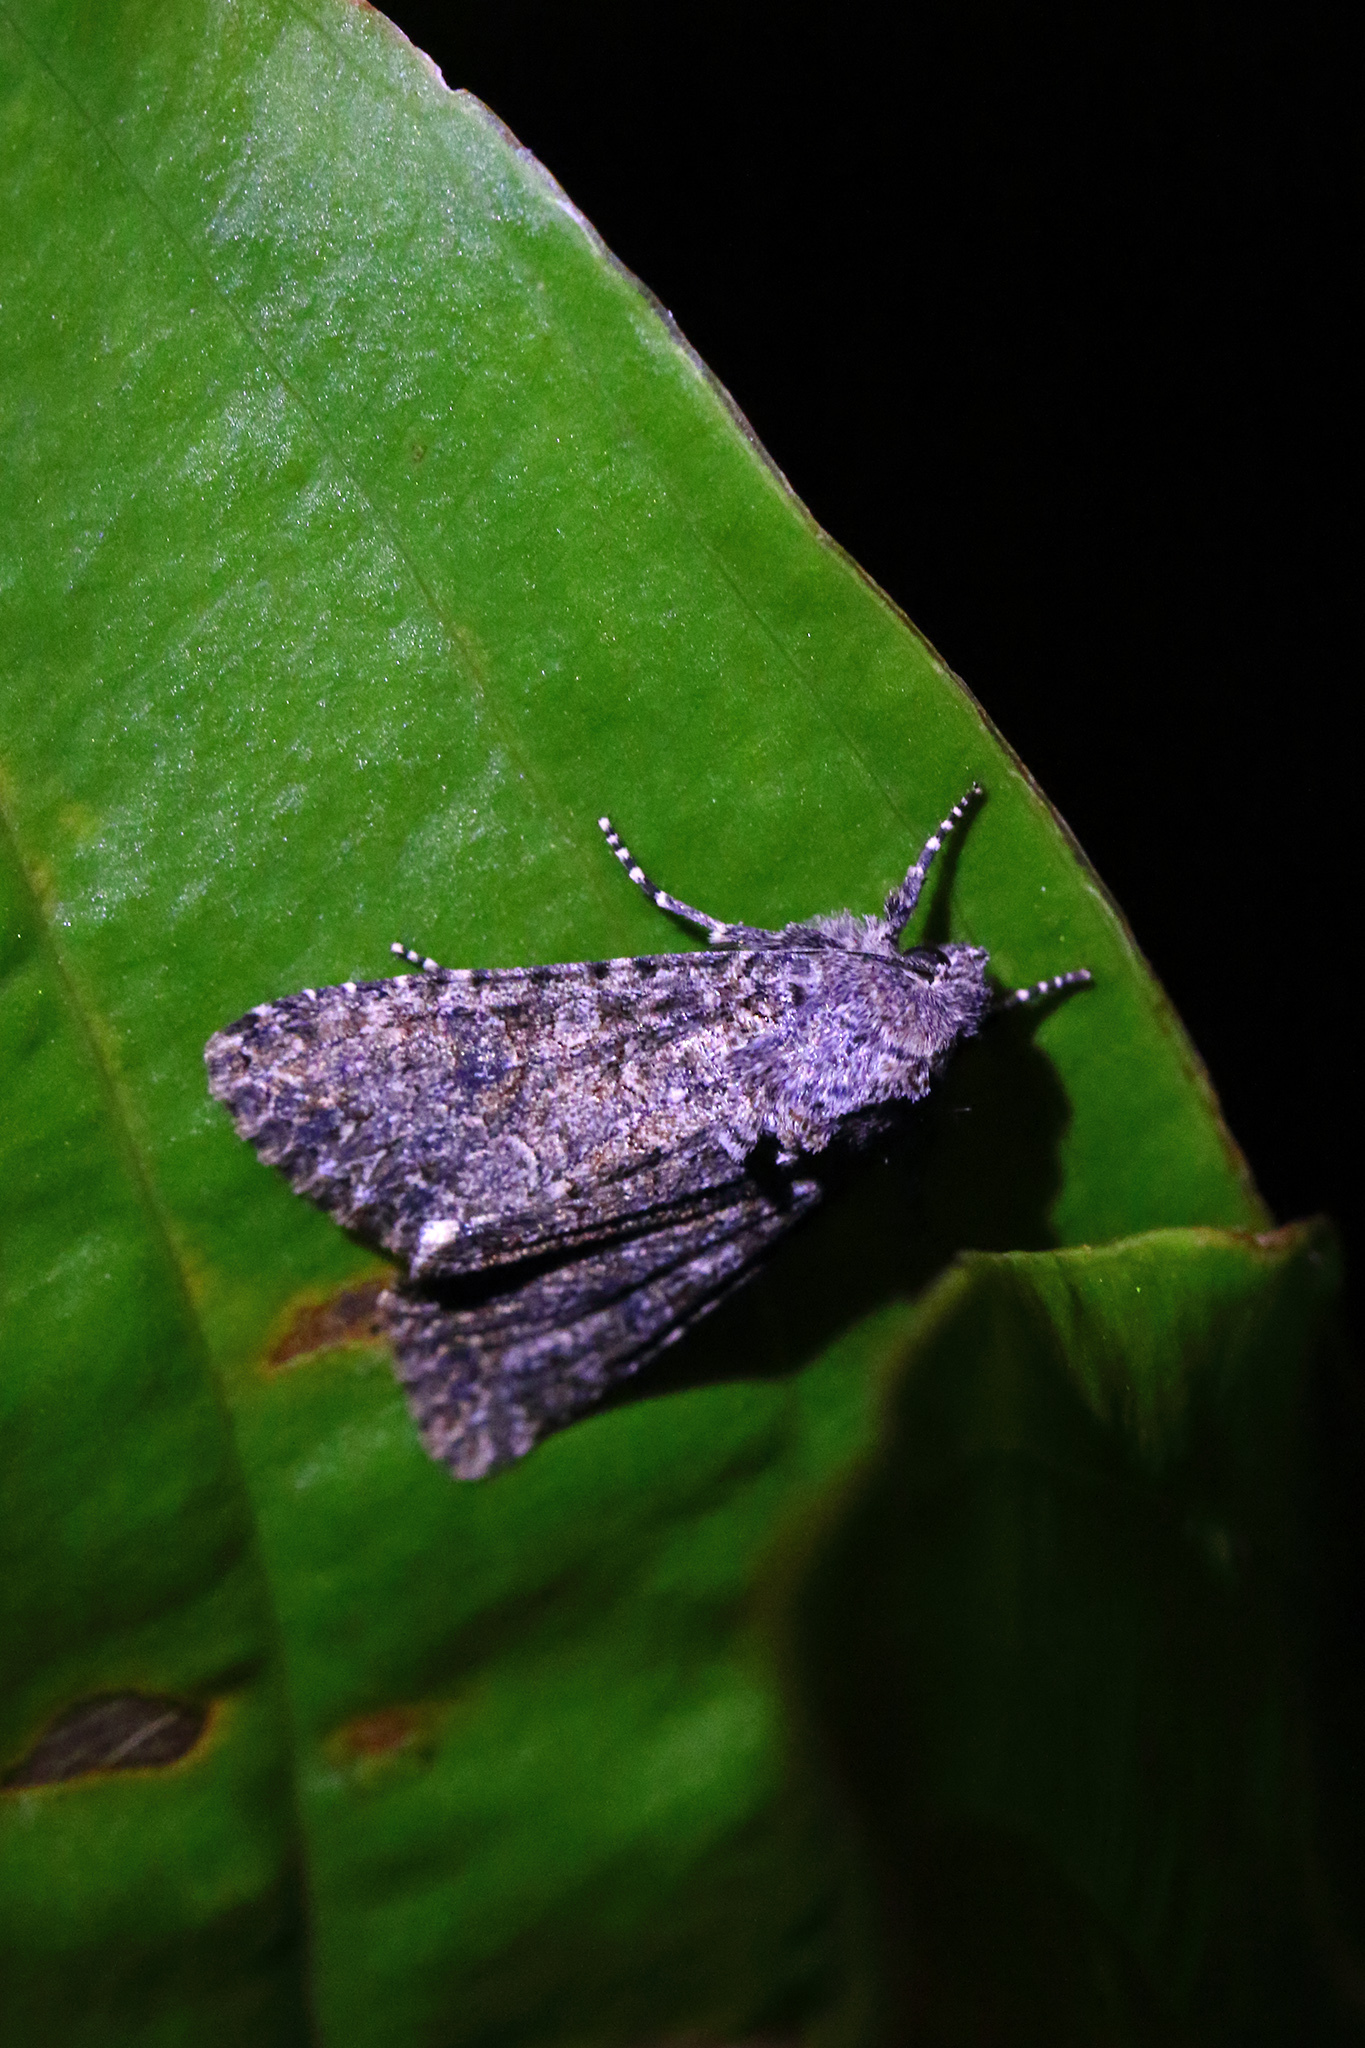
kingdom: Animalia
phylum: Arthropoda
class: Insecta
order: Lepidoptera
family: Noctuidae
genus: Anarta
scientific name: Anarta trifolii
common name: Clover cutworm moth
